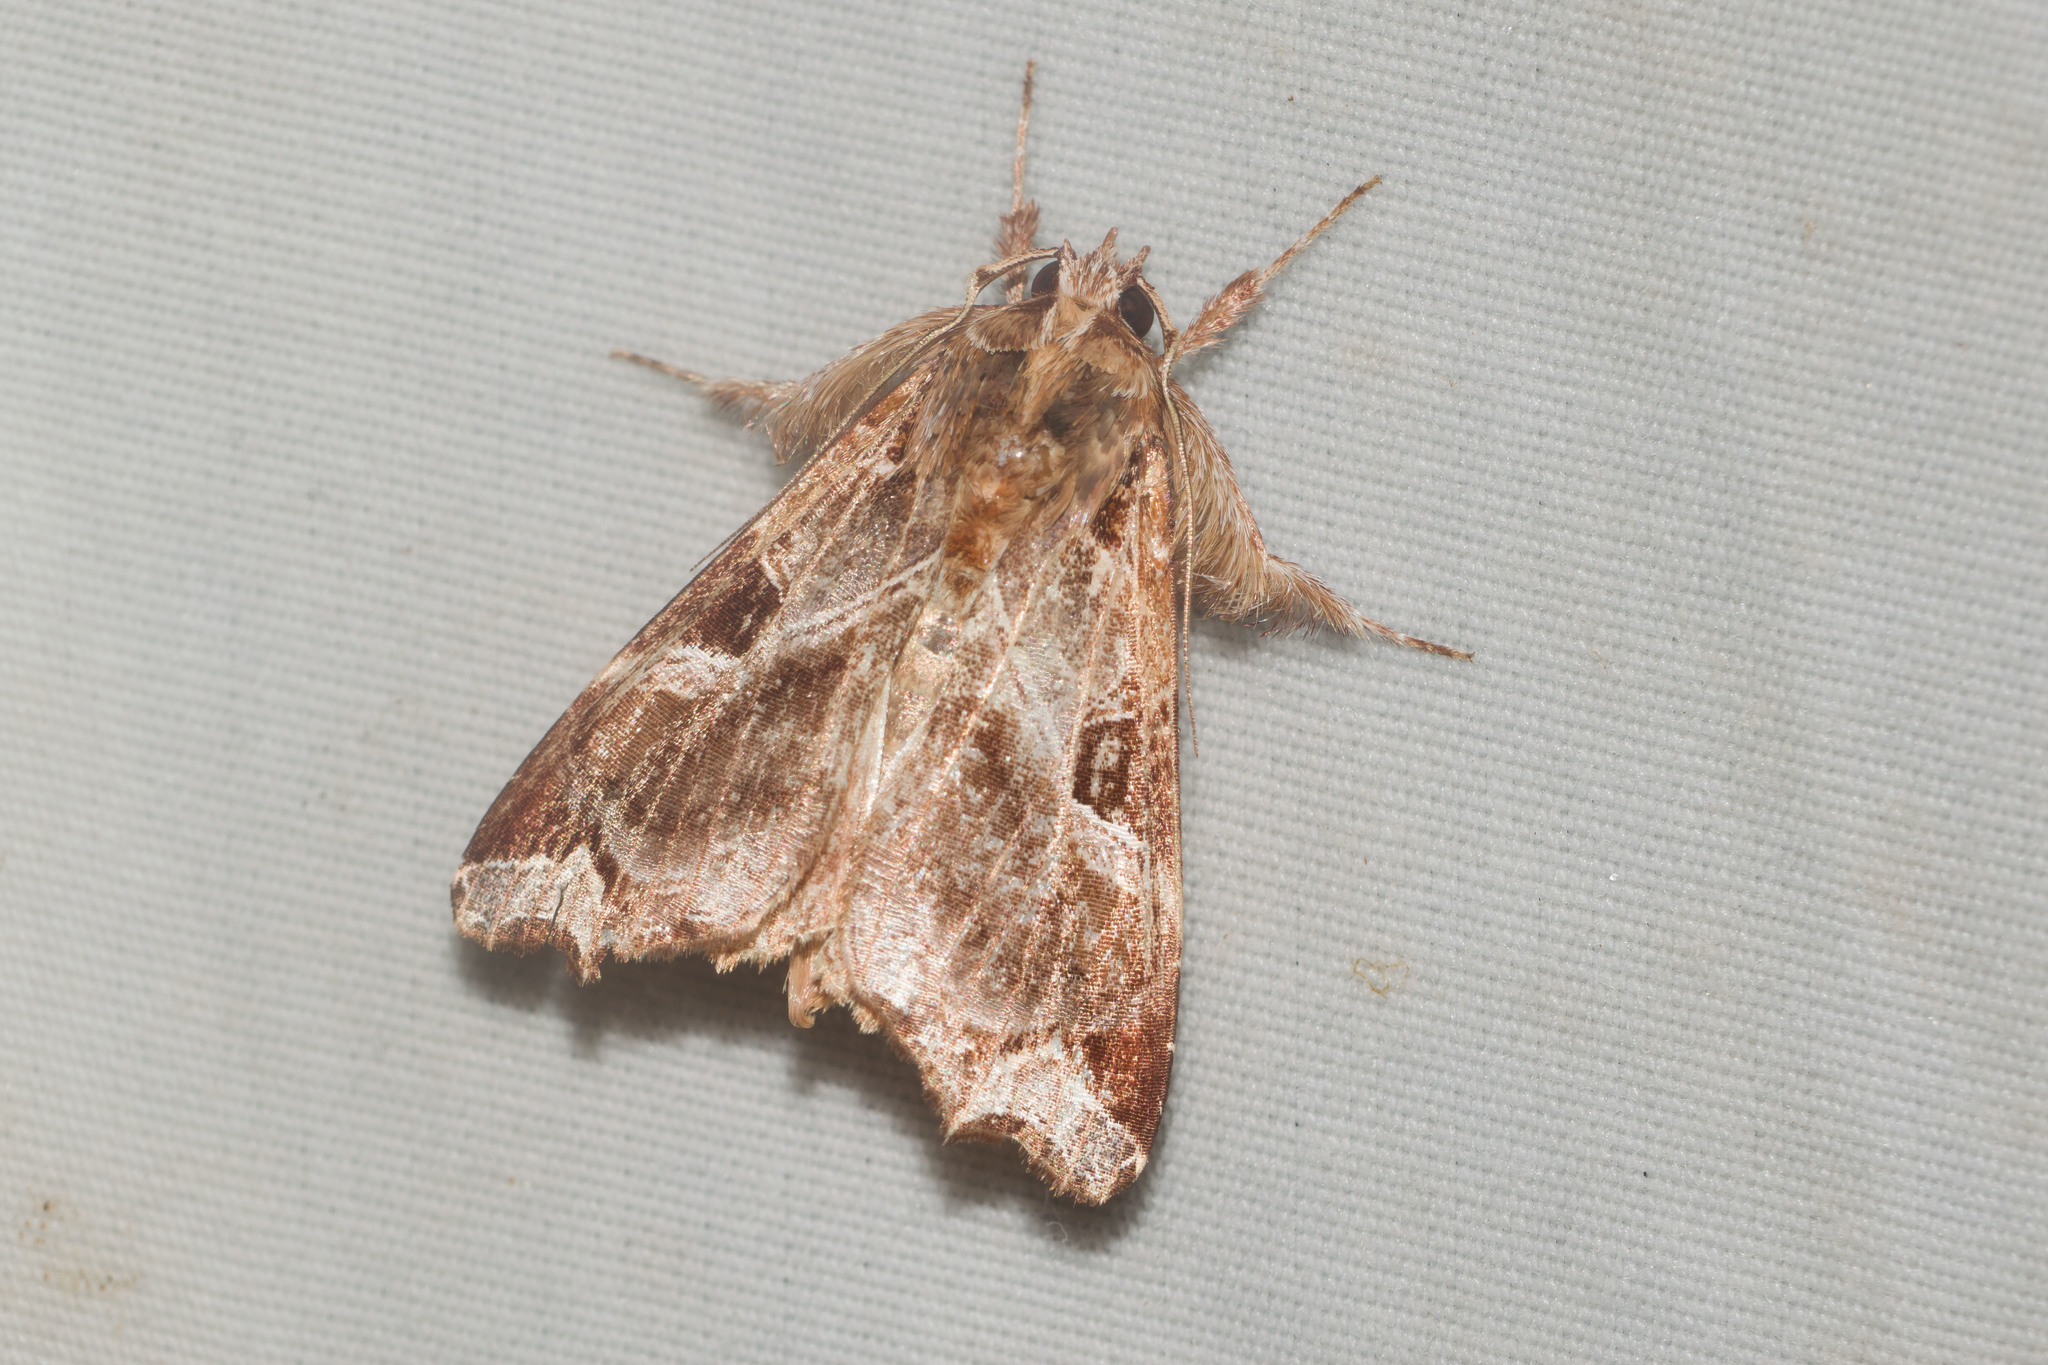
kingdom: Animalia
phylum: Arthropoda
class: Insecta
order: Lepidoptera
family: Noctuidae
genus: Callopistria
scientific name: Callopistria floridensis
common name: Florida fern moth
